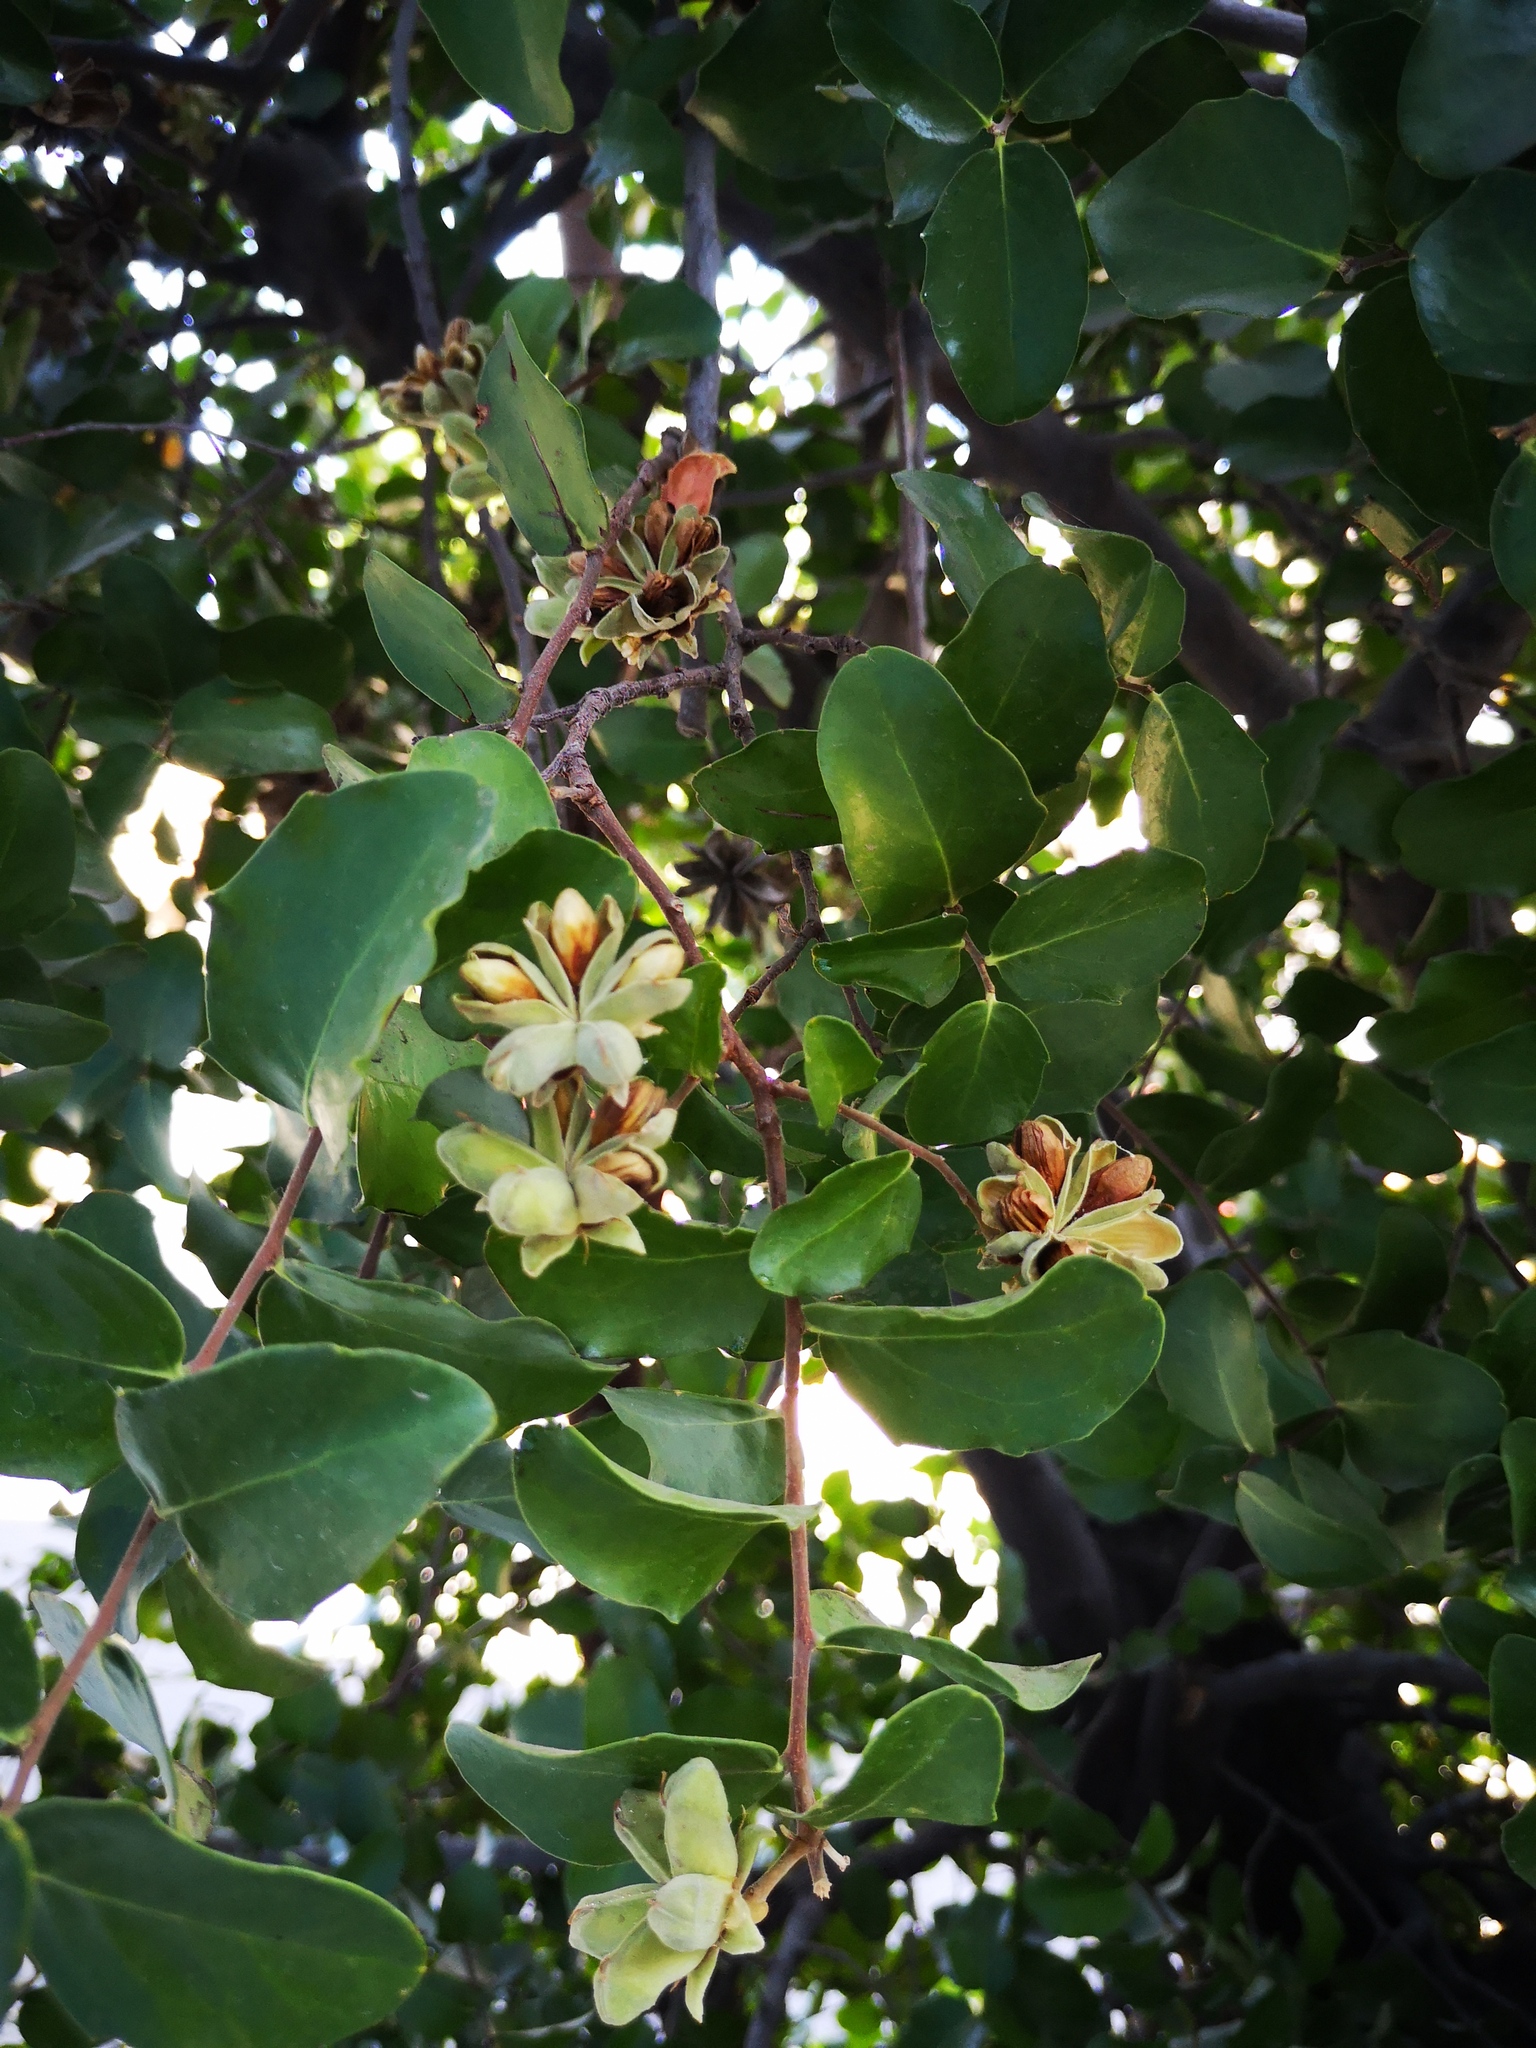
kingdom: Plantae
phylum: Tracheophyta
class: Magnoliopsida
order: Fabales
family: Quillajaceae
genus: Quillaja
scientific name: Quillaja saponaria
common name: Murillo's-bark
